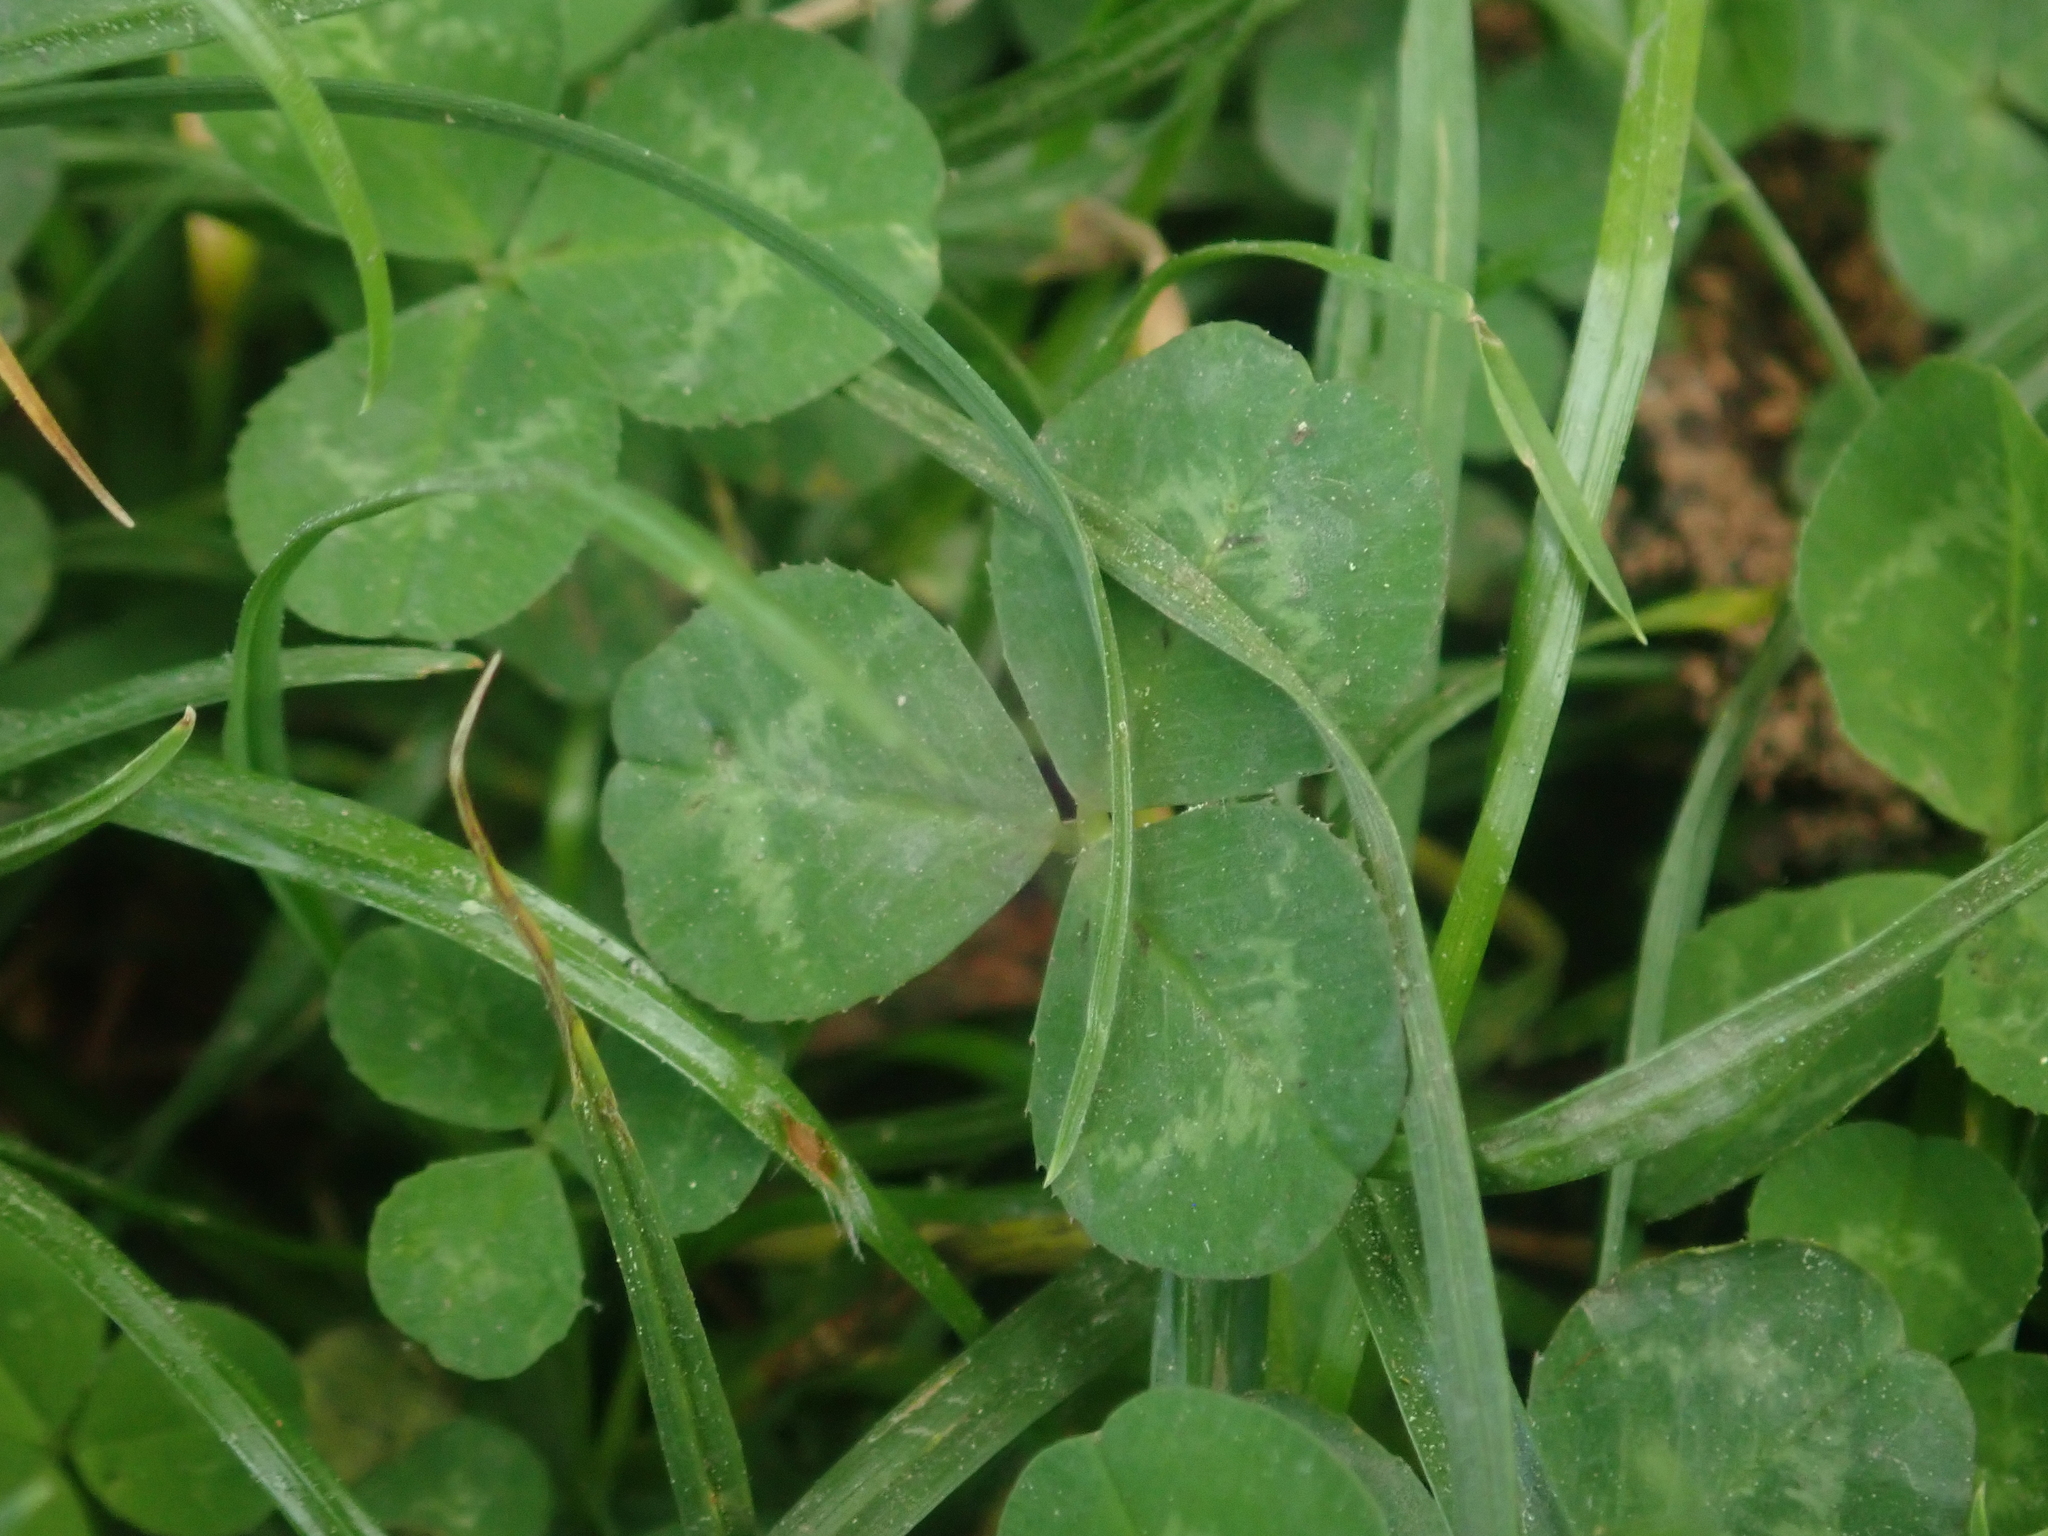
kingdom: Plantae
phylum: Tracheophyta
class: Magnoliopsida
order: Fabales
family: Fabaceae
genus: Trifolium
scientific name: Trifolium repens
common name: White clover
